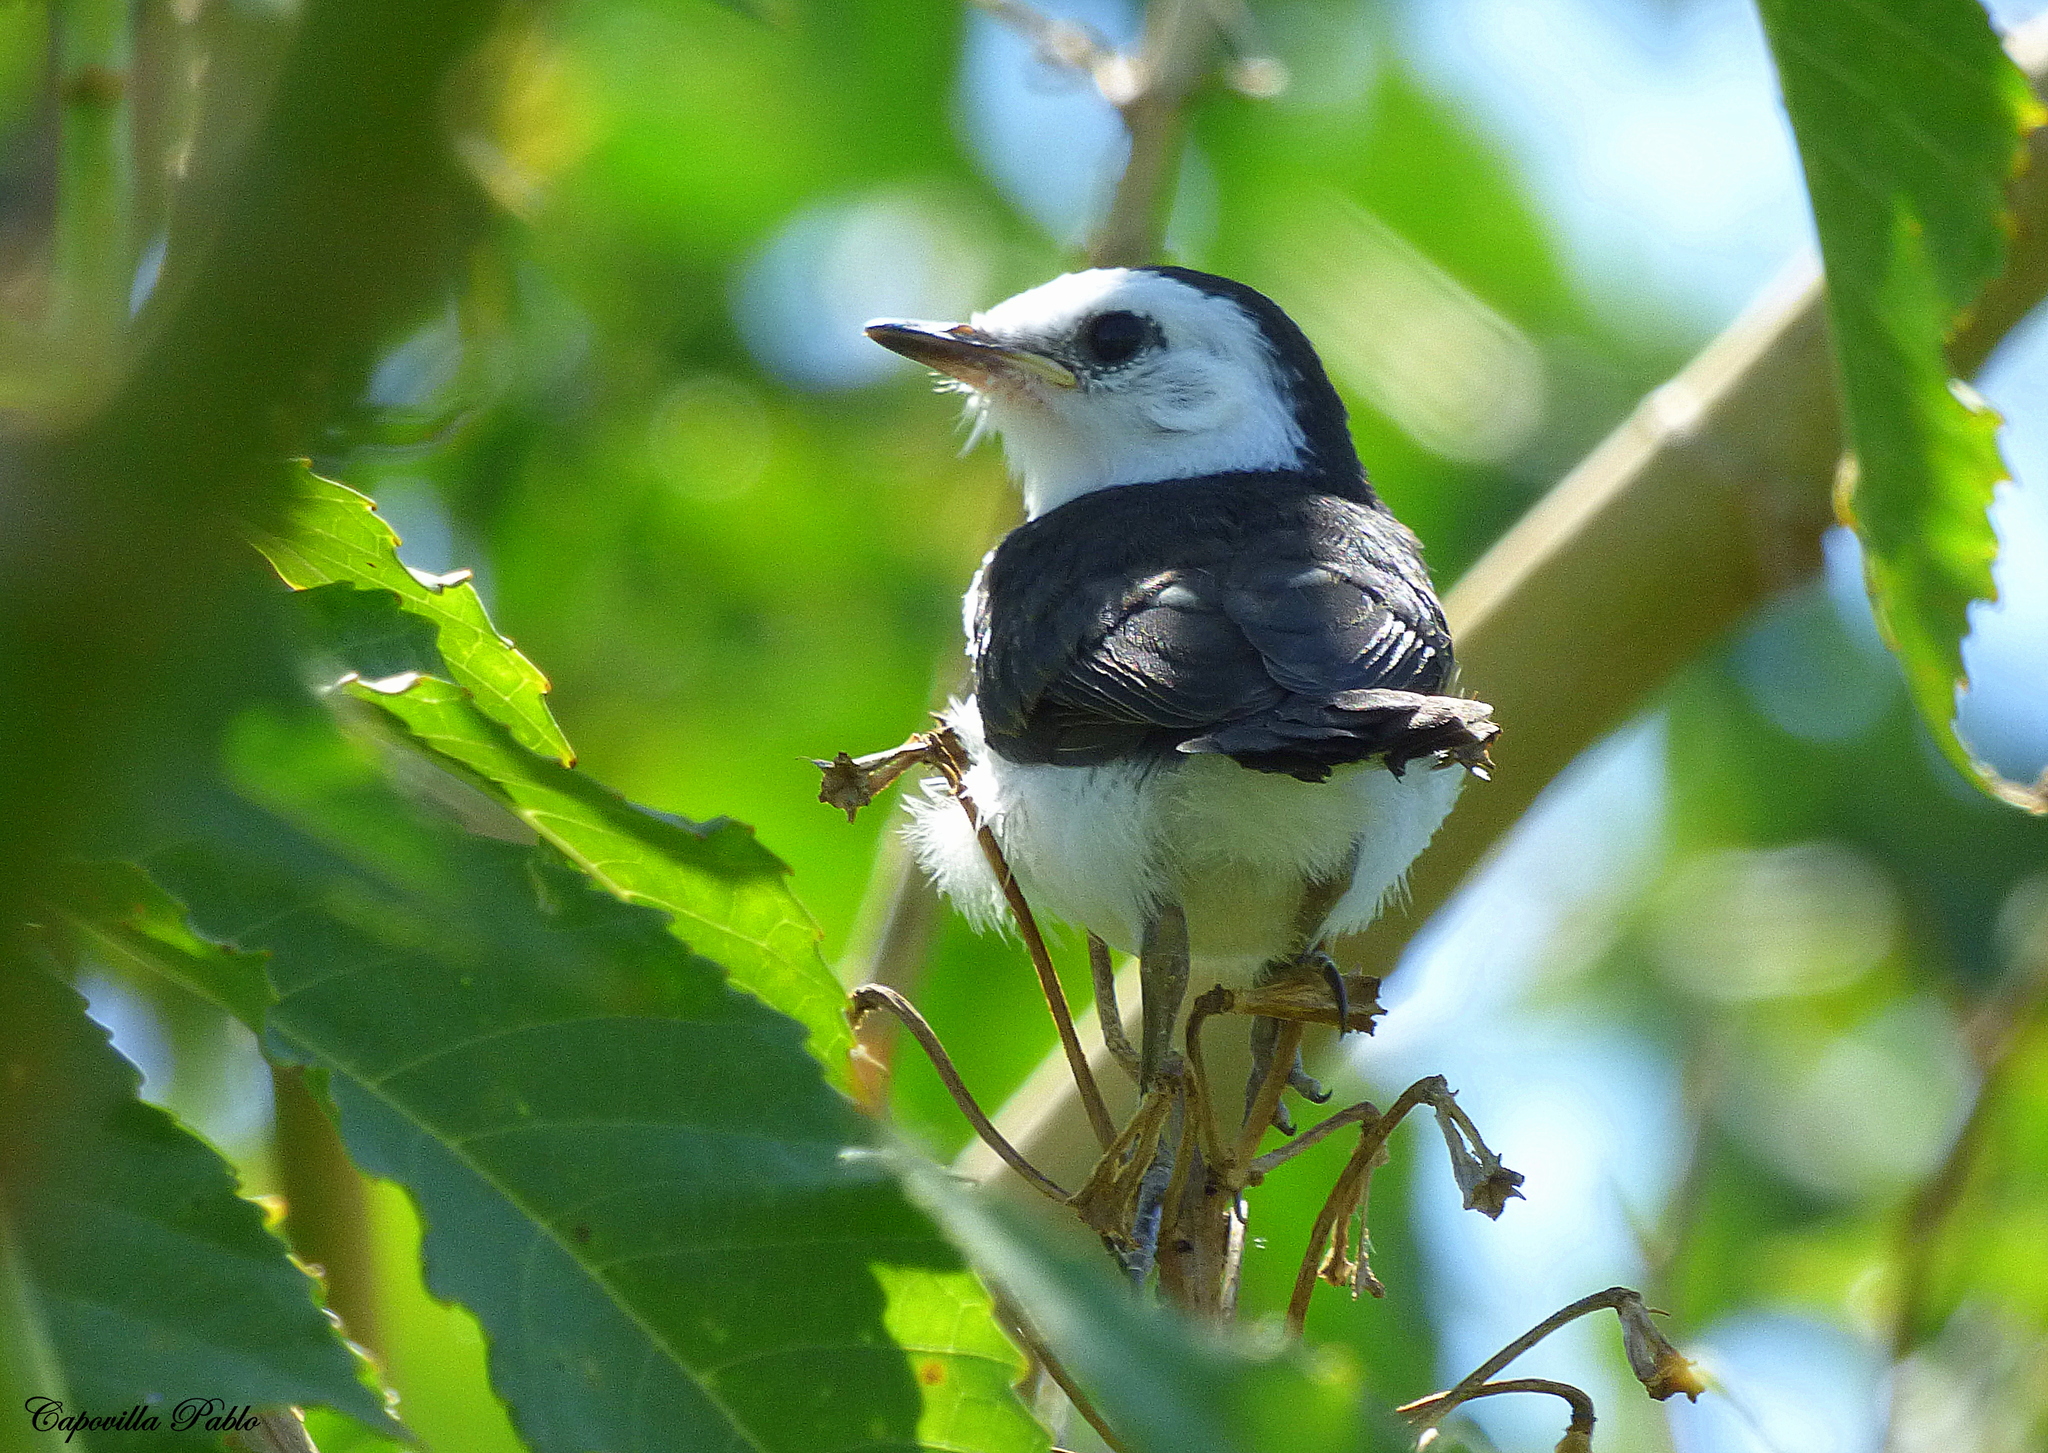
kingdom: Animalia
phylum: Chordata
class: Aves
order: Passeriformes
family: Tyrannidae
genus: Fluvicola
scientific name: Fluvicola pica
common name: Pied water-tyrant
